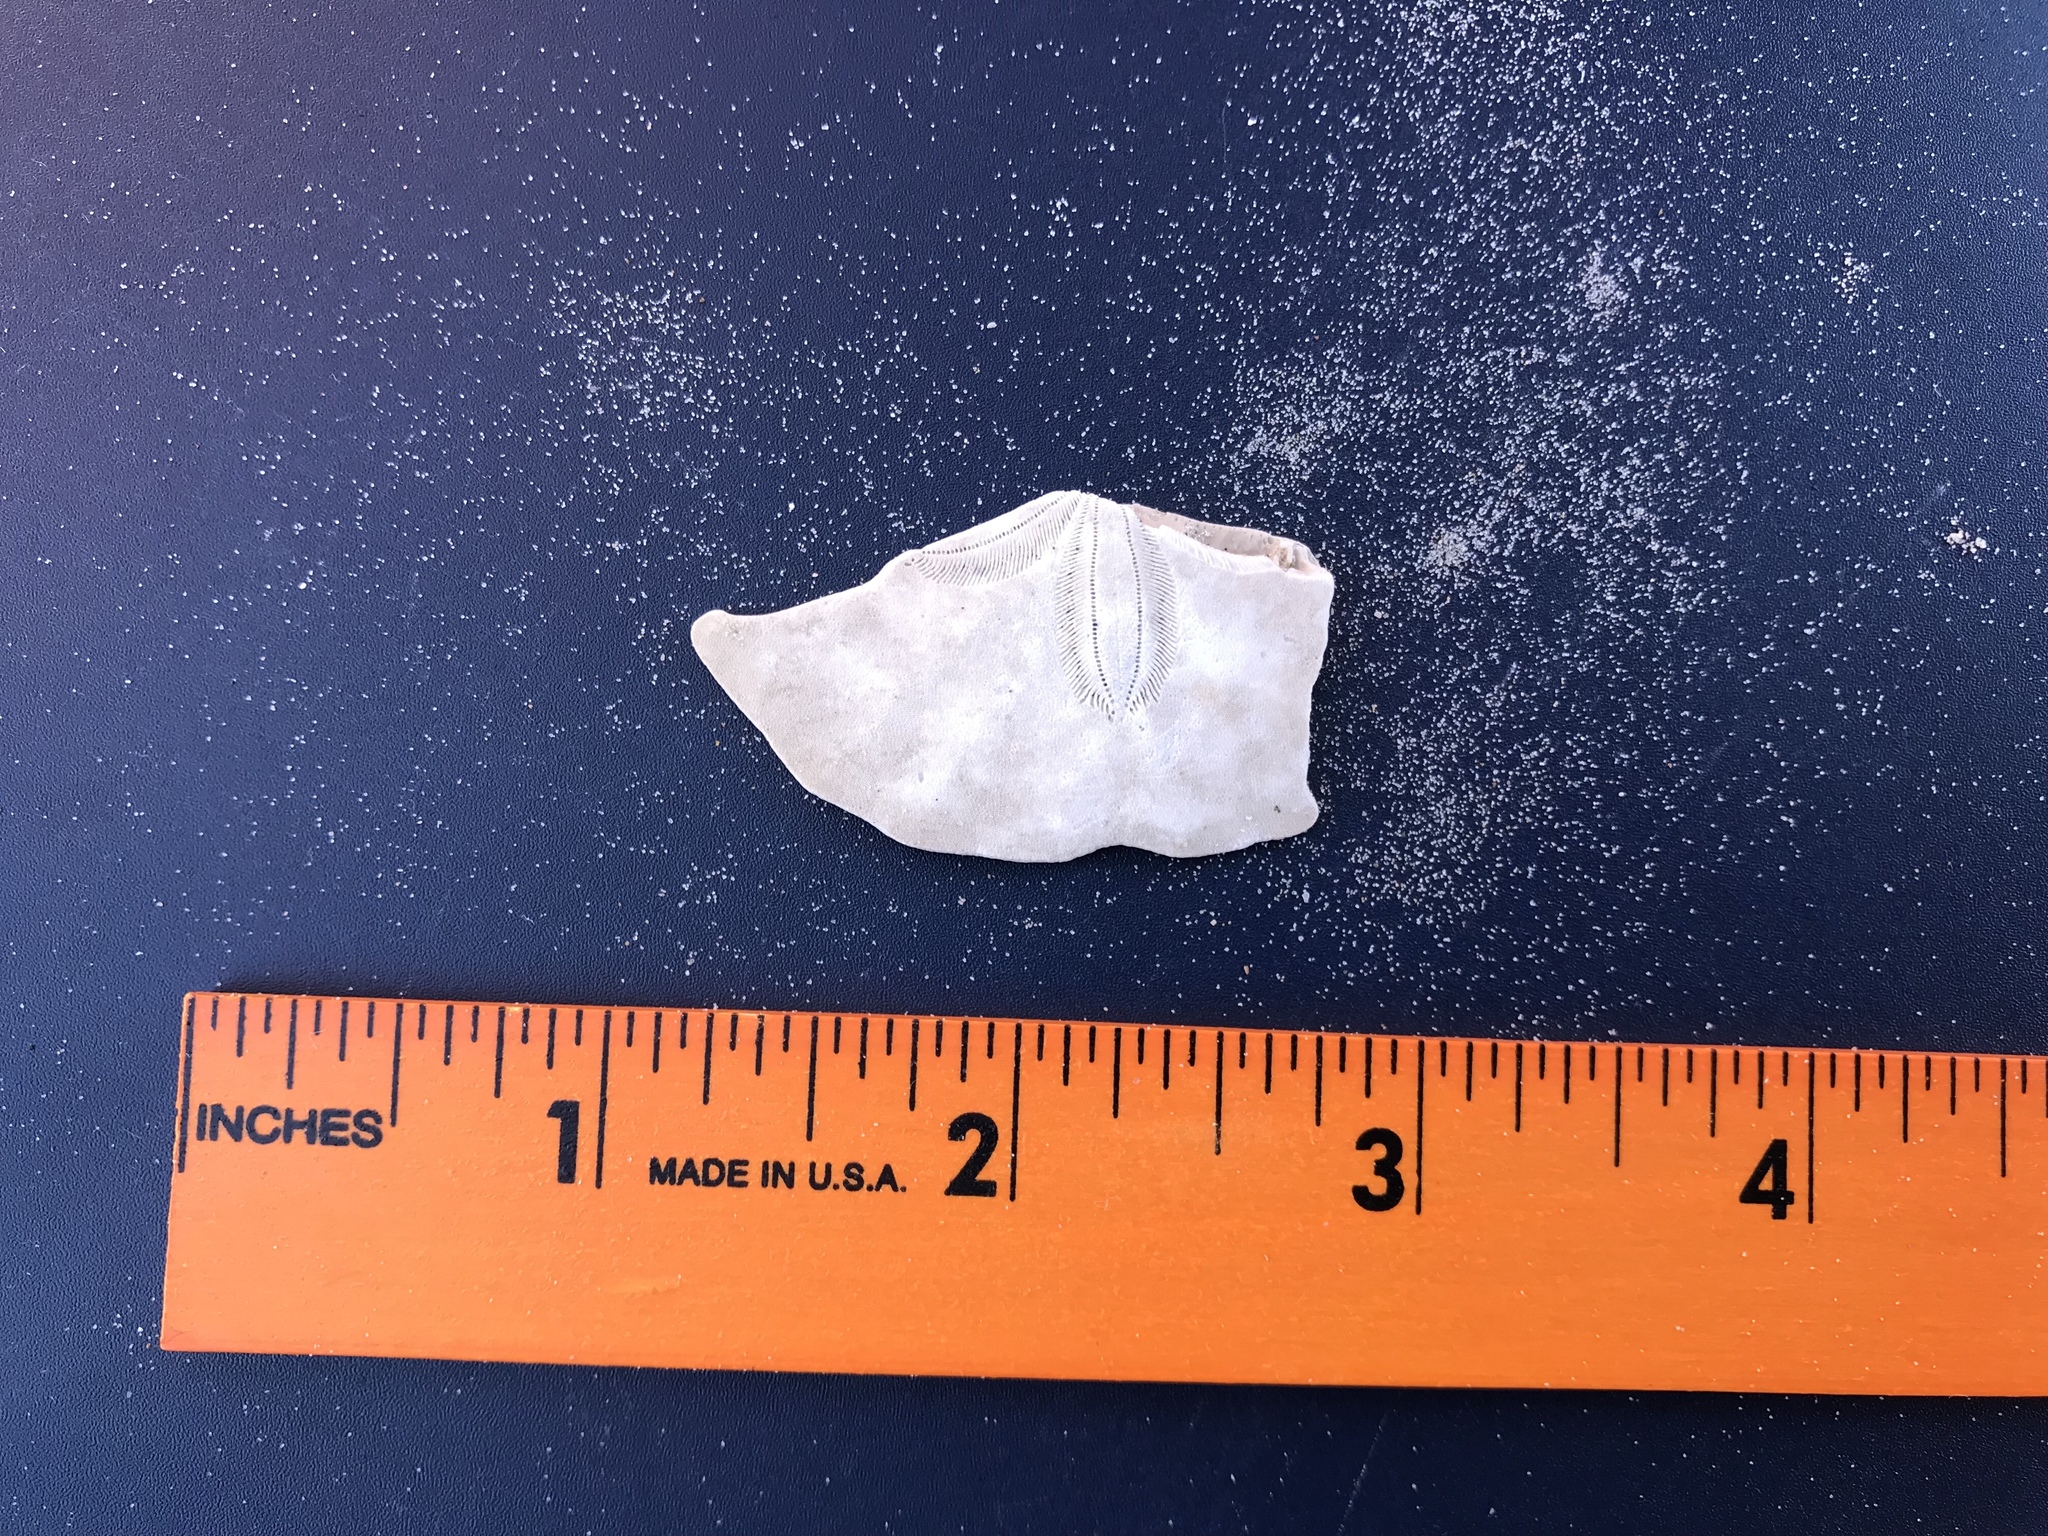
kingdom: Animalia
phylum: Echinodermata
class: Echinoidea
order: Echinolampadacea
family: Mellitidae
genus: Mellita
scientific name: Mellita quinquiesperforata
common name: Sand dollar
